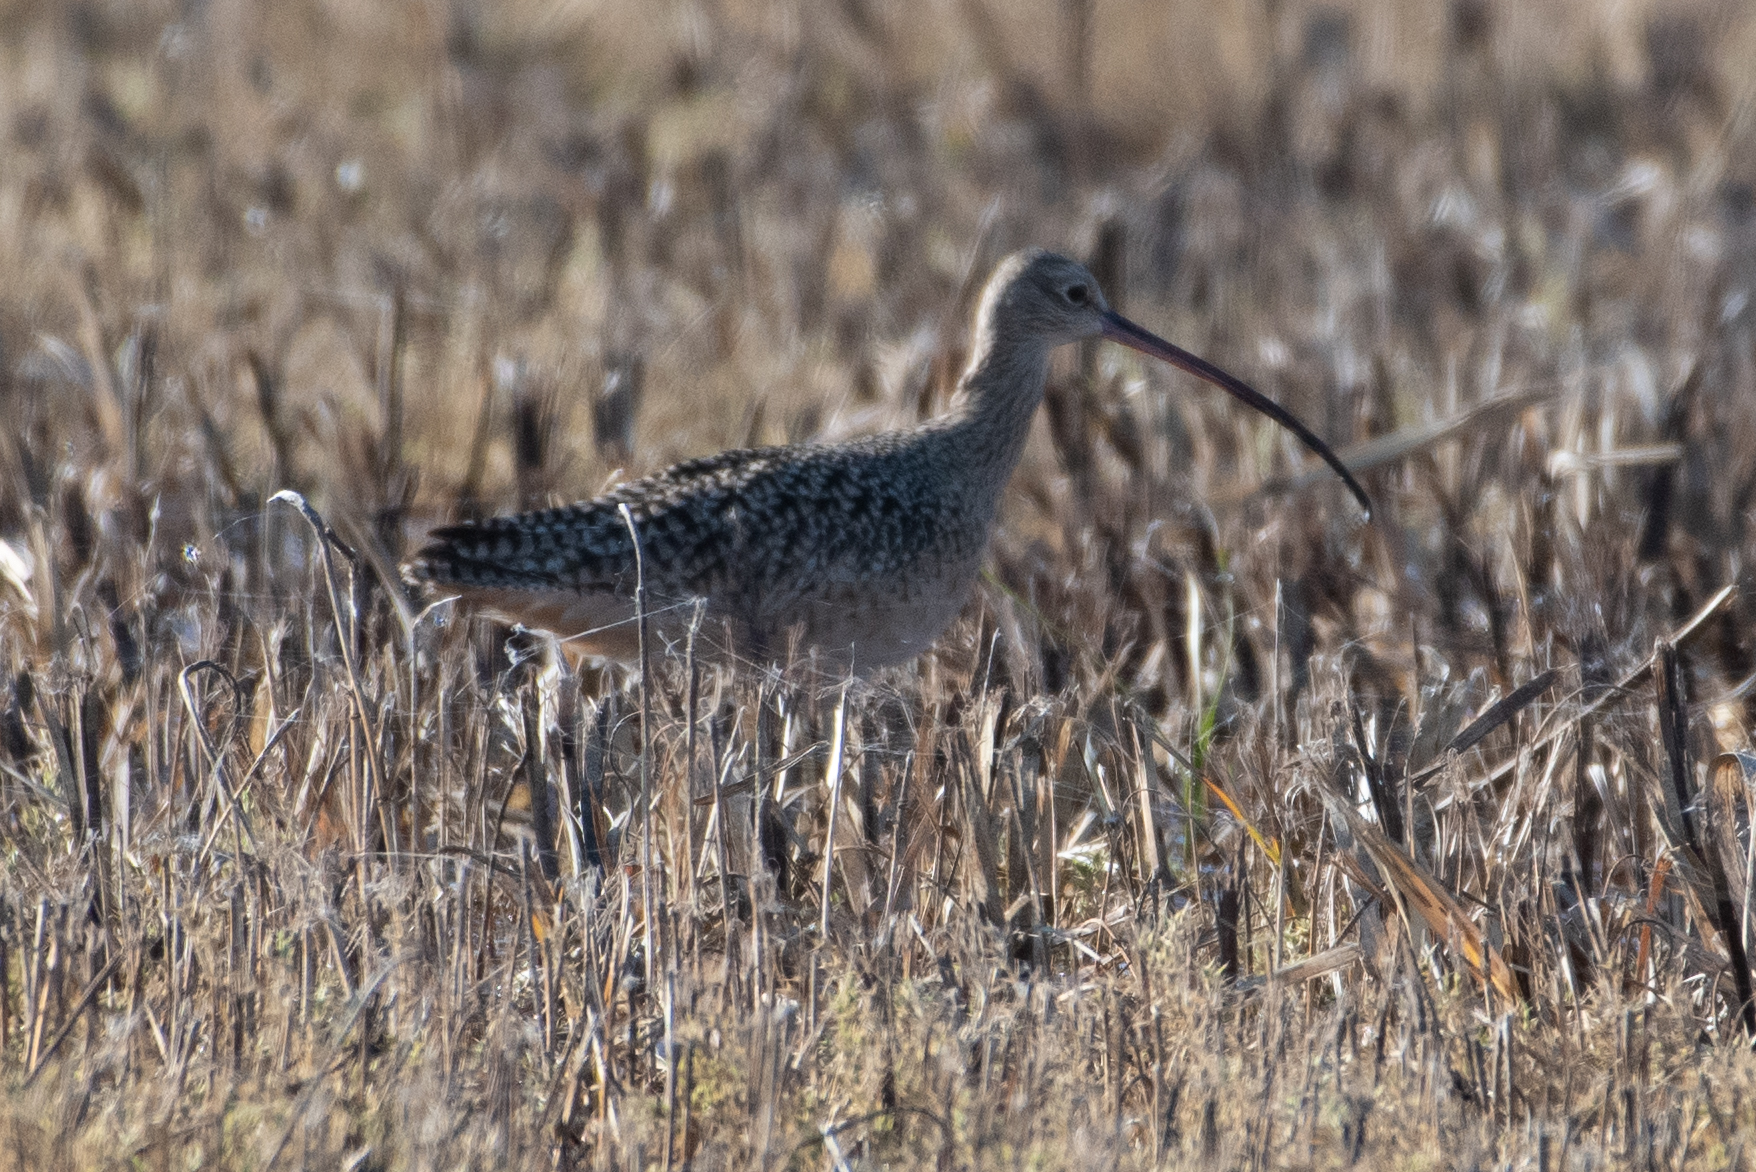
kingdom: Animalia
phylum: Chordata
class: Aves
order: Charadriiformes
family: Scolopacidae
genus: Numenius
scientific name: Numenius americanus
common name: Long-billed curlew
